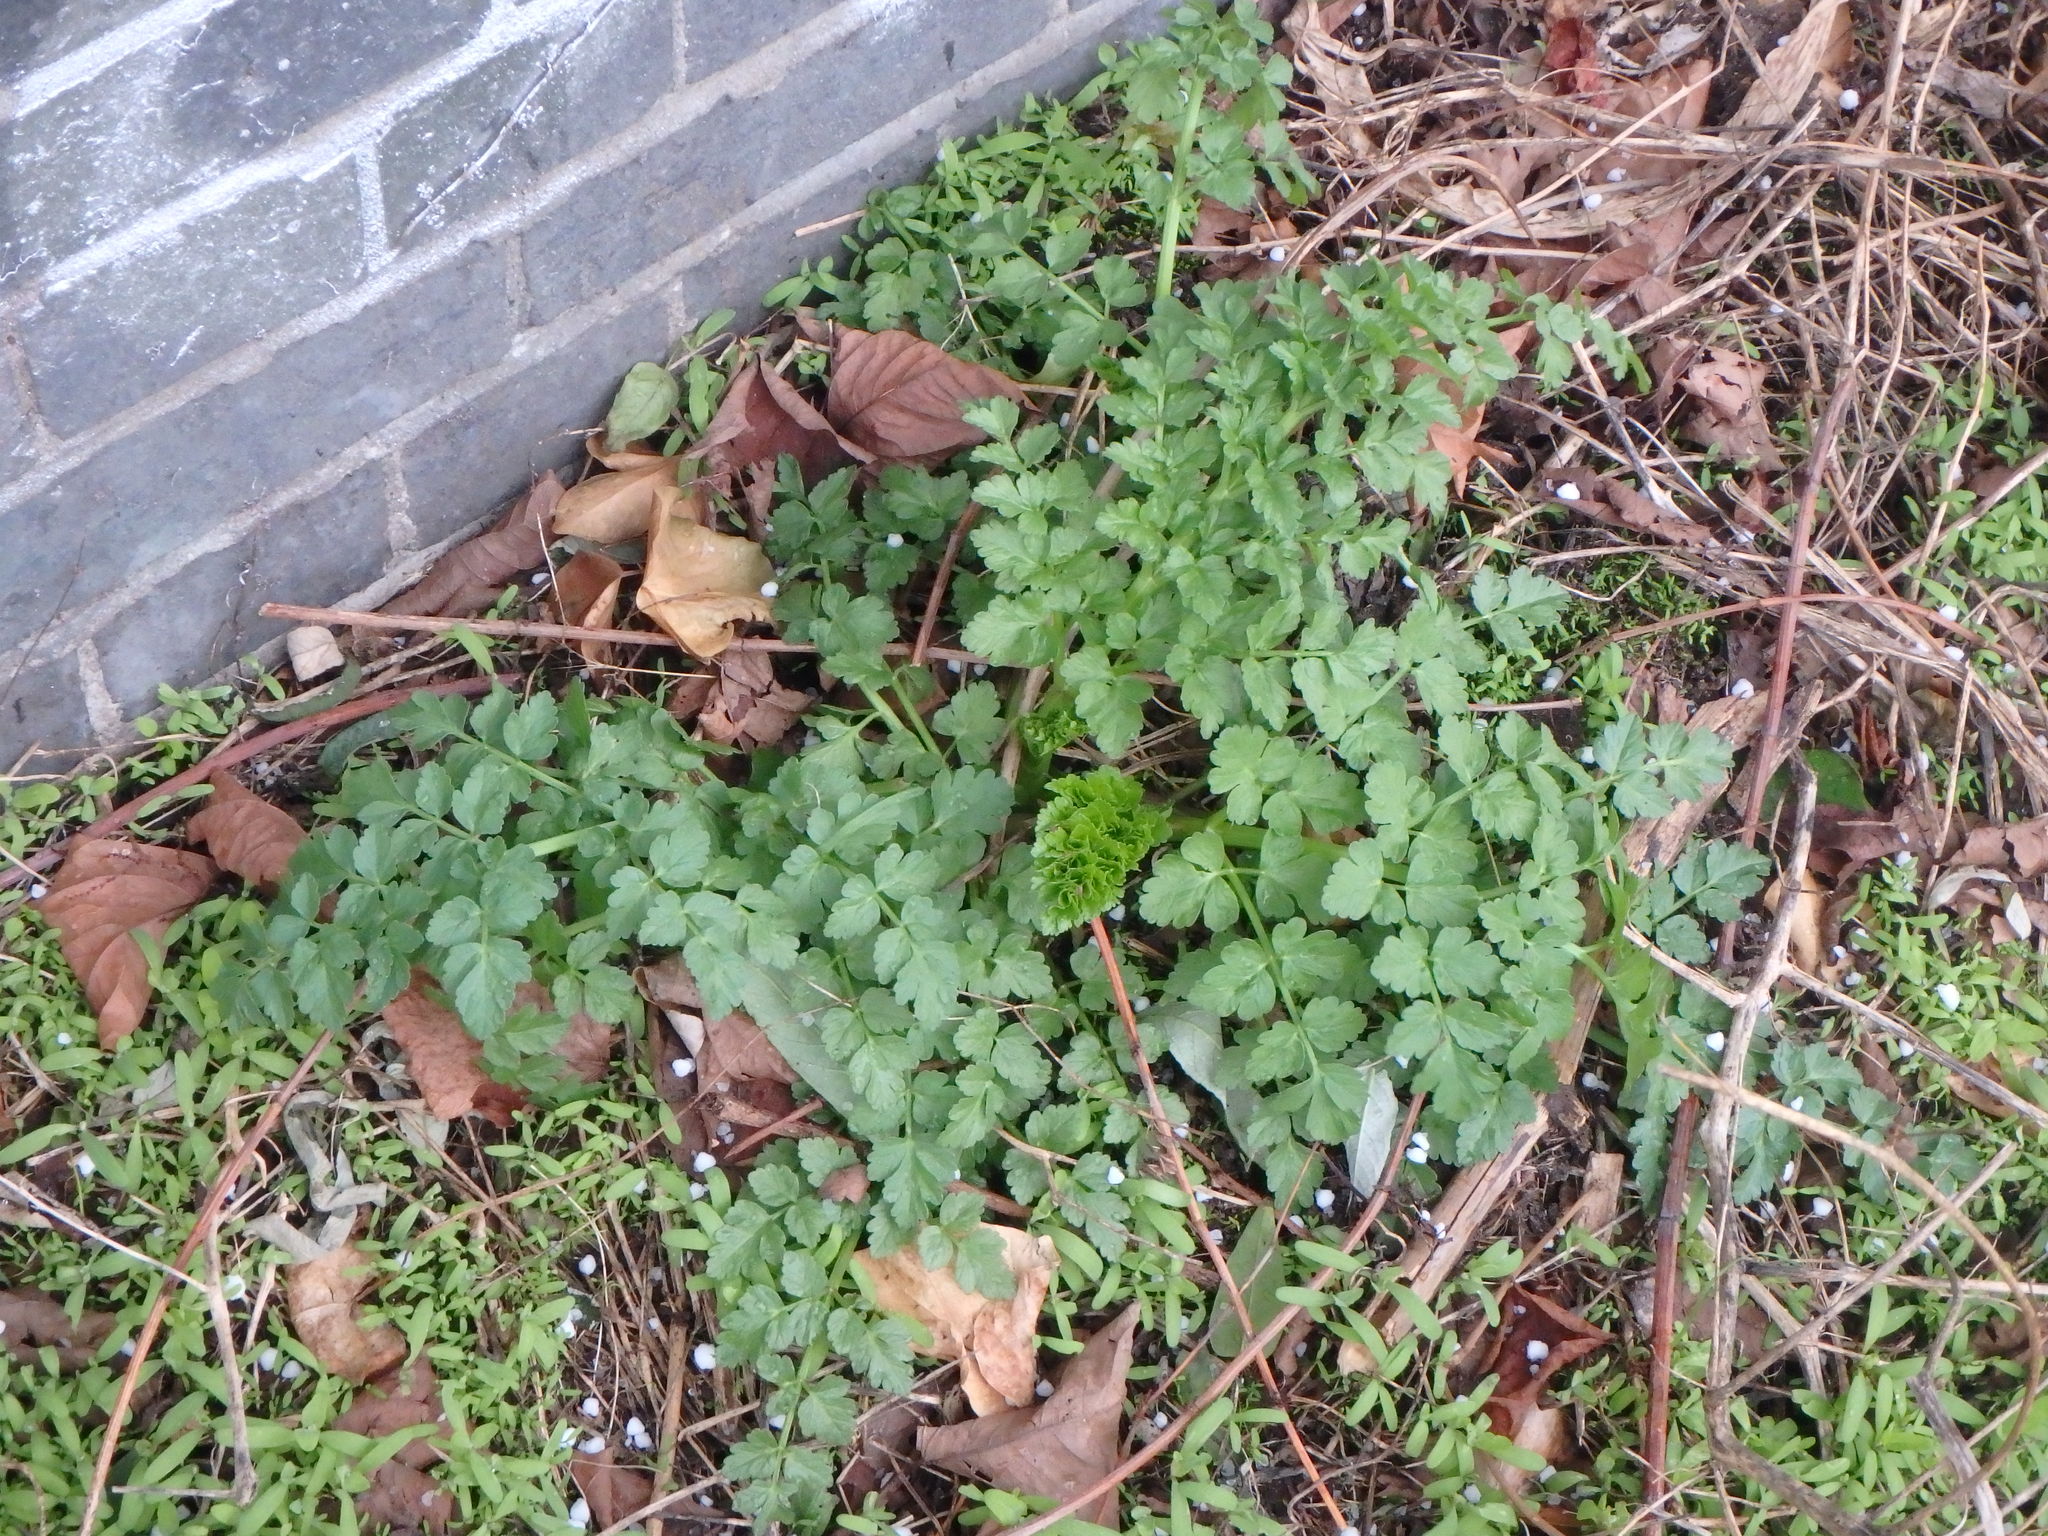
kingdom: Plantae
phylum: Tracheophyta
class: Magnoliopsida
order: Apiales
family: Apiaceae
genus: Oenanthe
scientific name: Oenanthe crocata
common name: Hemlock water-dropwort
